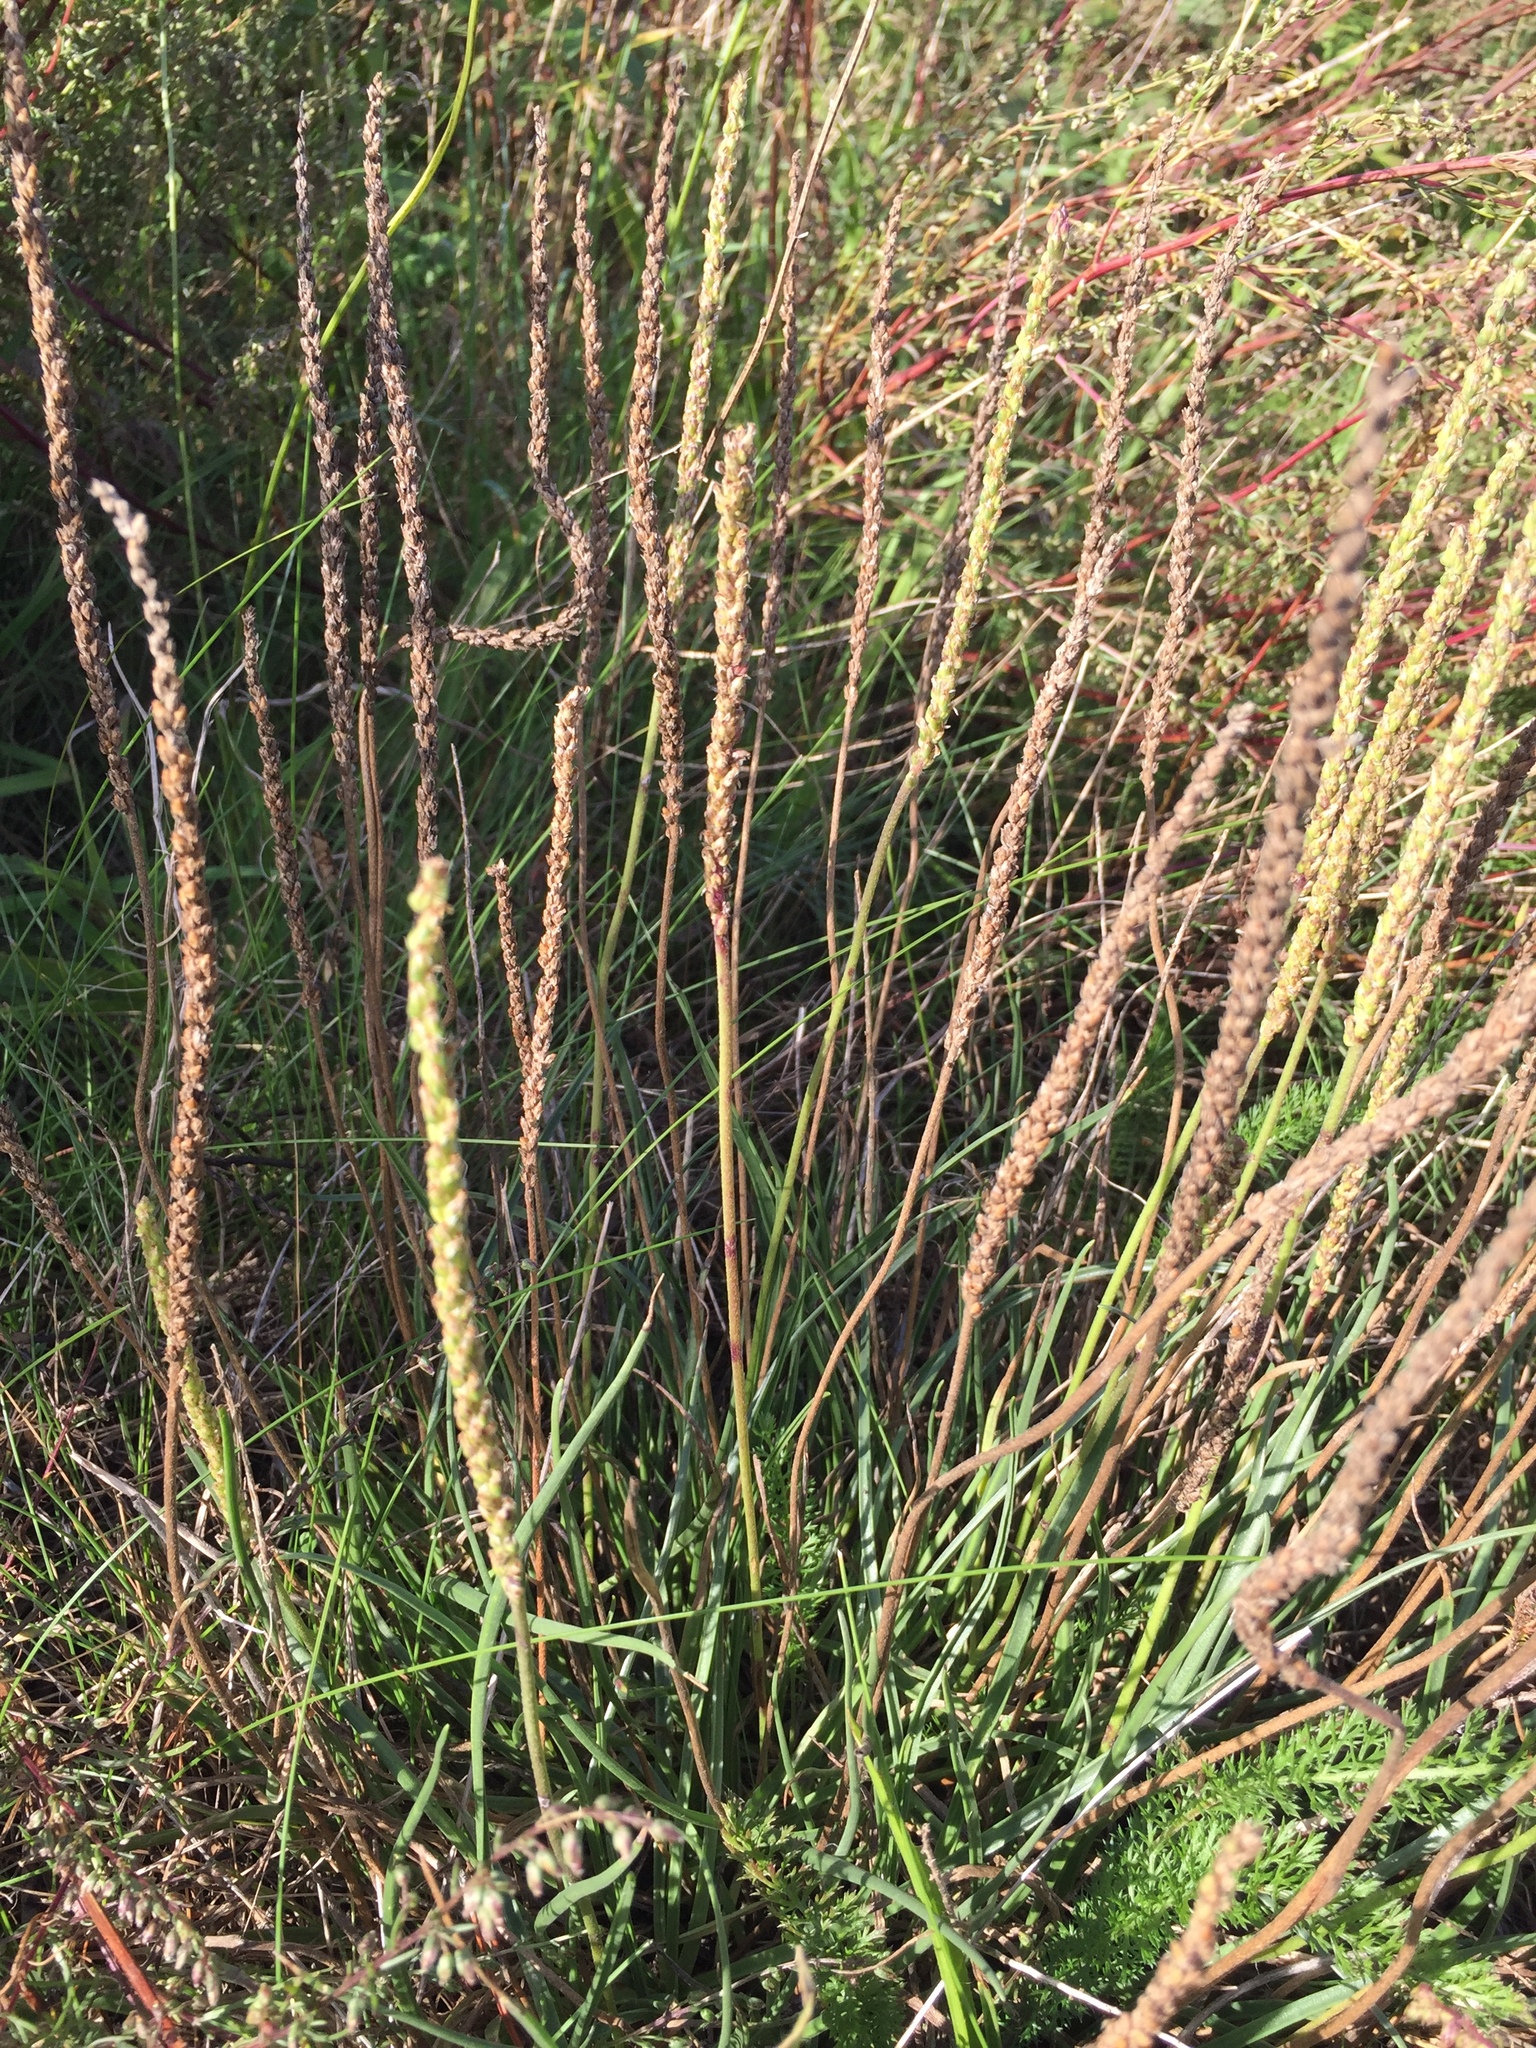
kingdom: Plantae
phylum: Tracheophyta
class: Magnoliopsida
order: Lamiales
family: Plantaginaceae
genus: Plantago
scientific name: Plantago maritima
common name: Sea plantain
